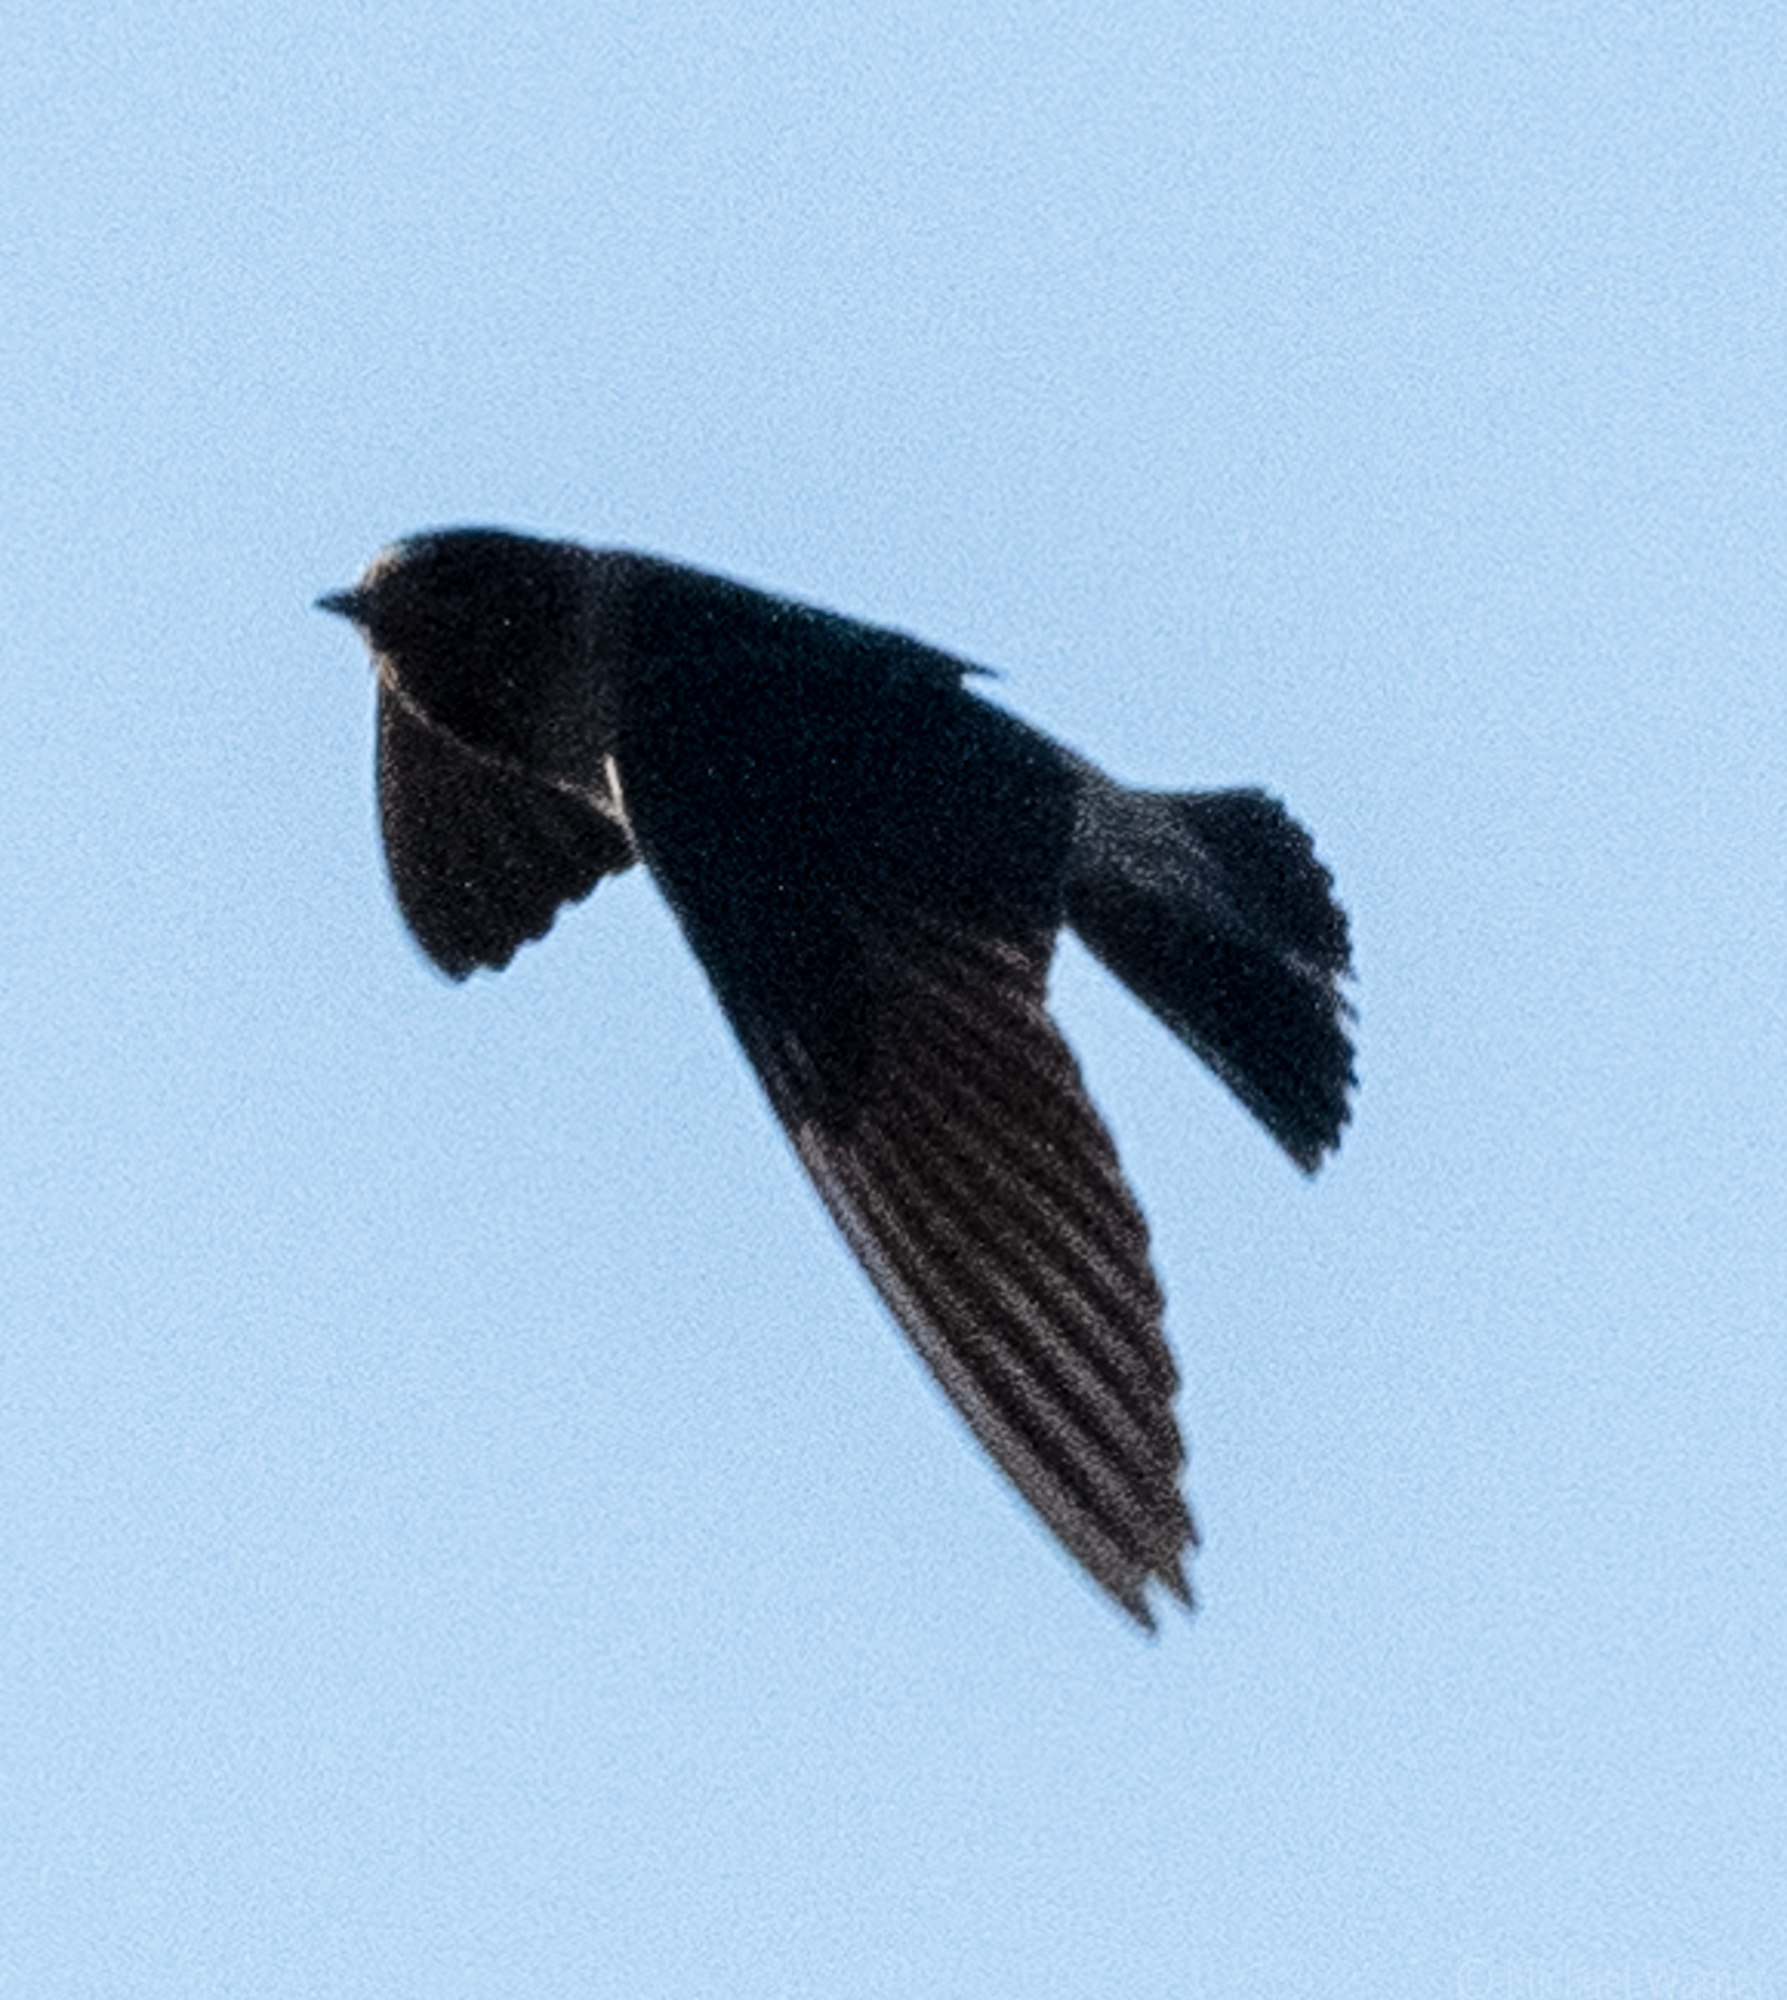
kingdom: Animalia
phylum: Chordata
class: Aves
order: Passeriformes
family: Hirundinidae
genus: Petrochelidon
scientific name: Petrochelidon pyrrhonota
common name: American cliff swallow
